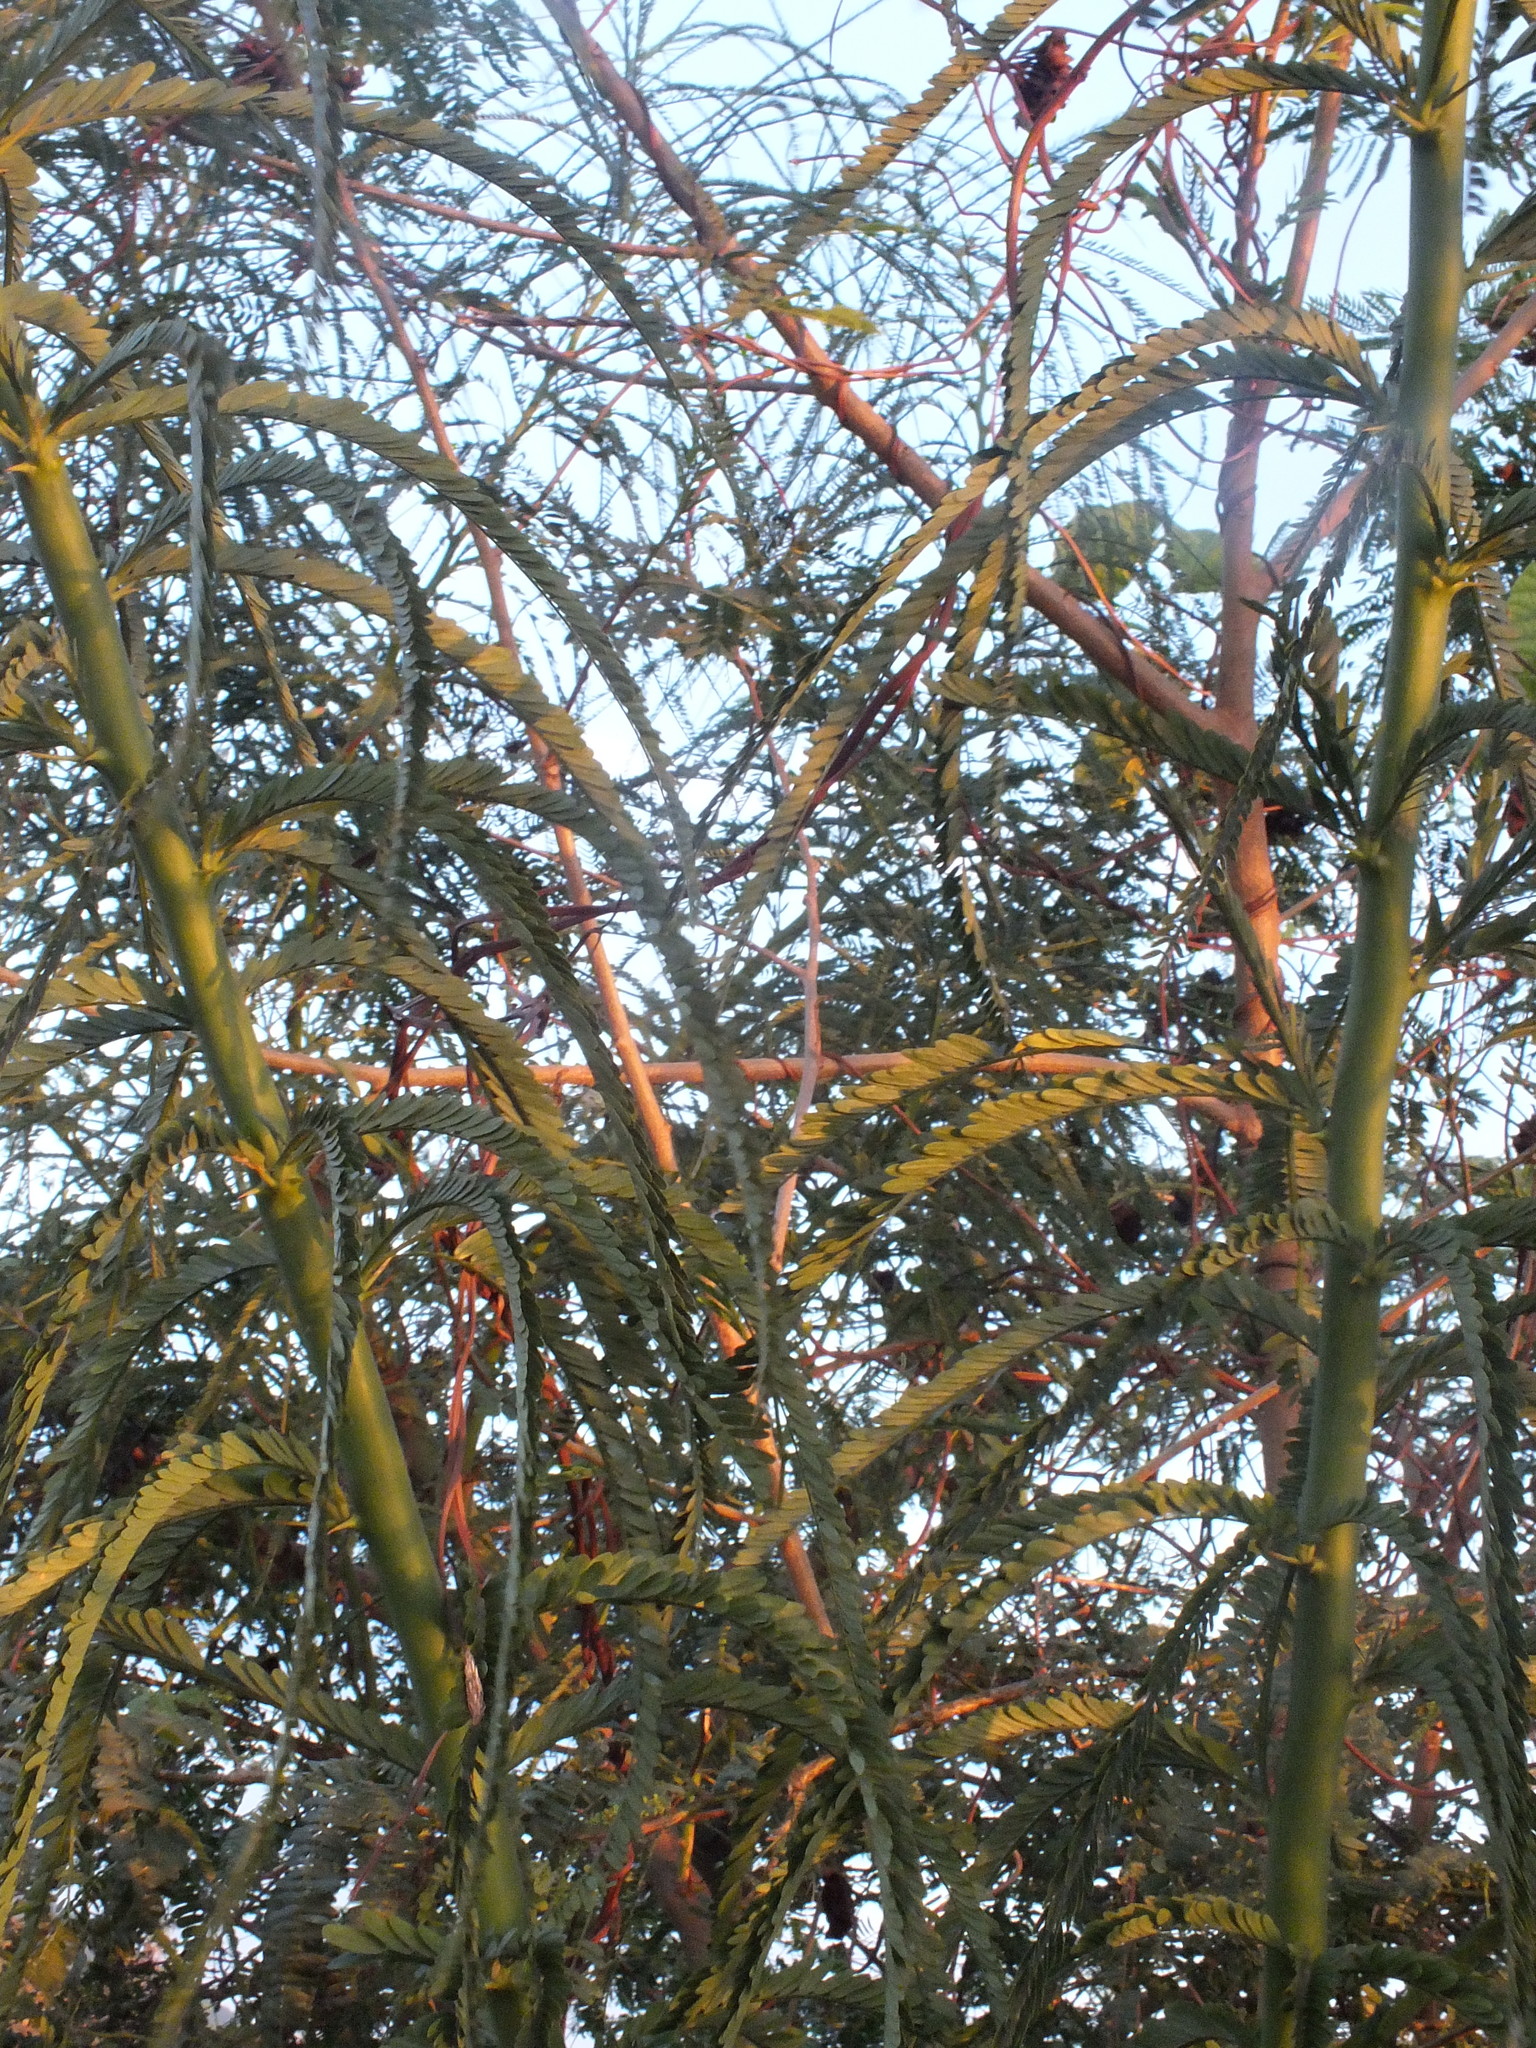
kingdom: Plantae
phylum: Tracheophyta
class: Magnoliopsida
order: Fabales
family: Fabaceae
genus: Parkinsonia
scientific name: Parkinsonia aculeata
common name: Jerusalem thorn
